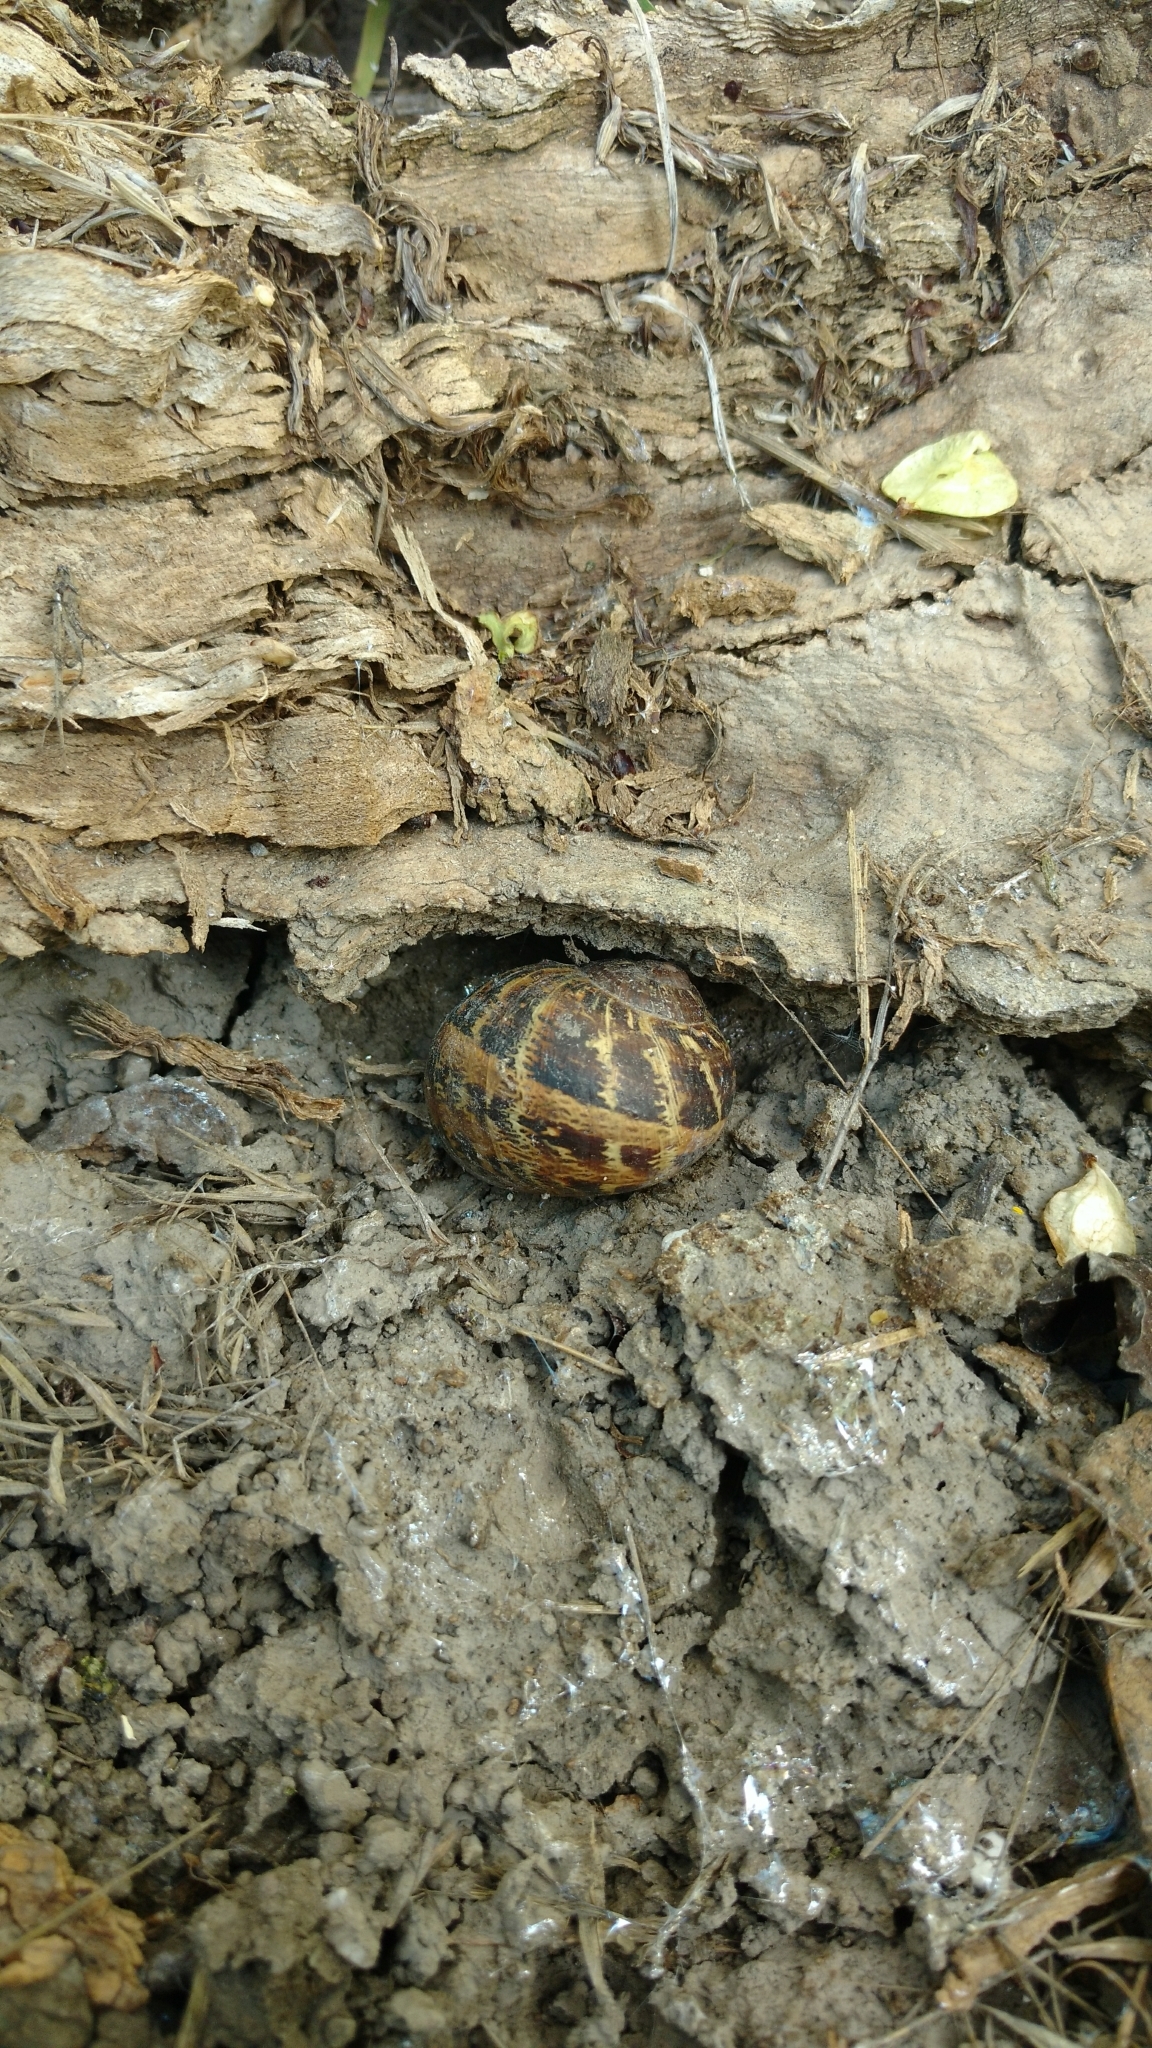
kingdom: Animalia
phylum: Mollusca
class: Gastropoda
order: Stylommatophora
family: Helicidae
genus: Cornu
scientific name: Cornu aspersum
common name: Brown garden snail
